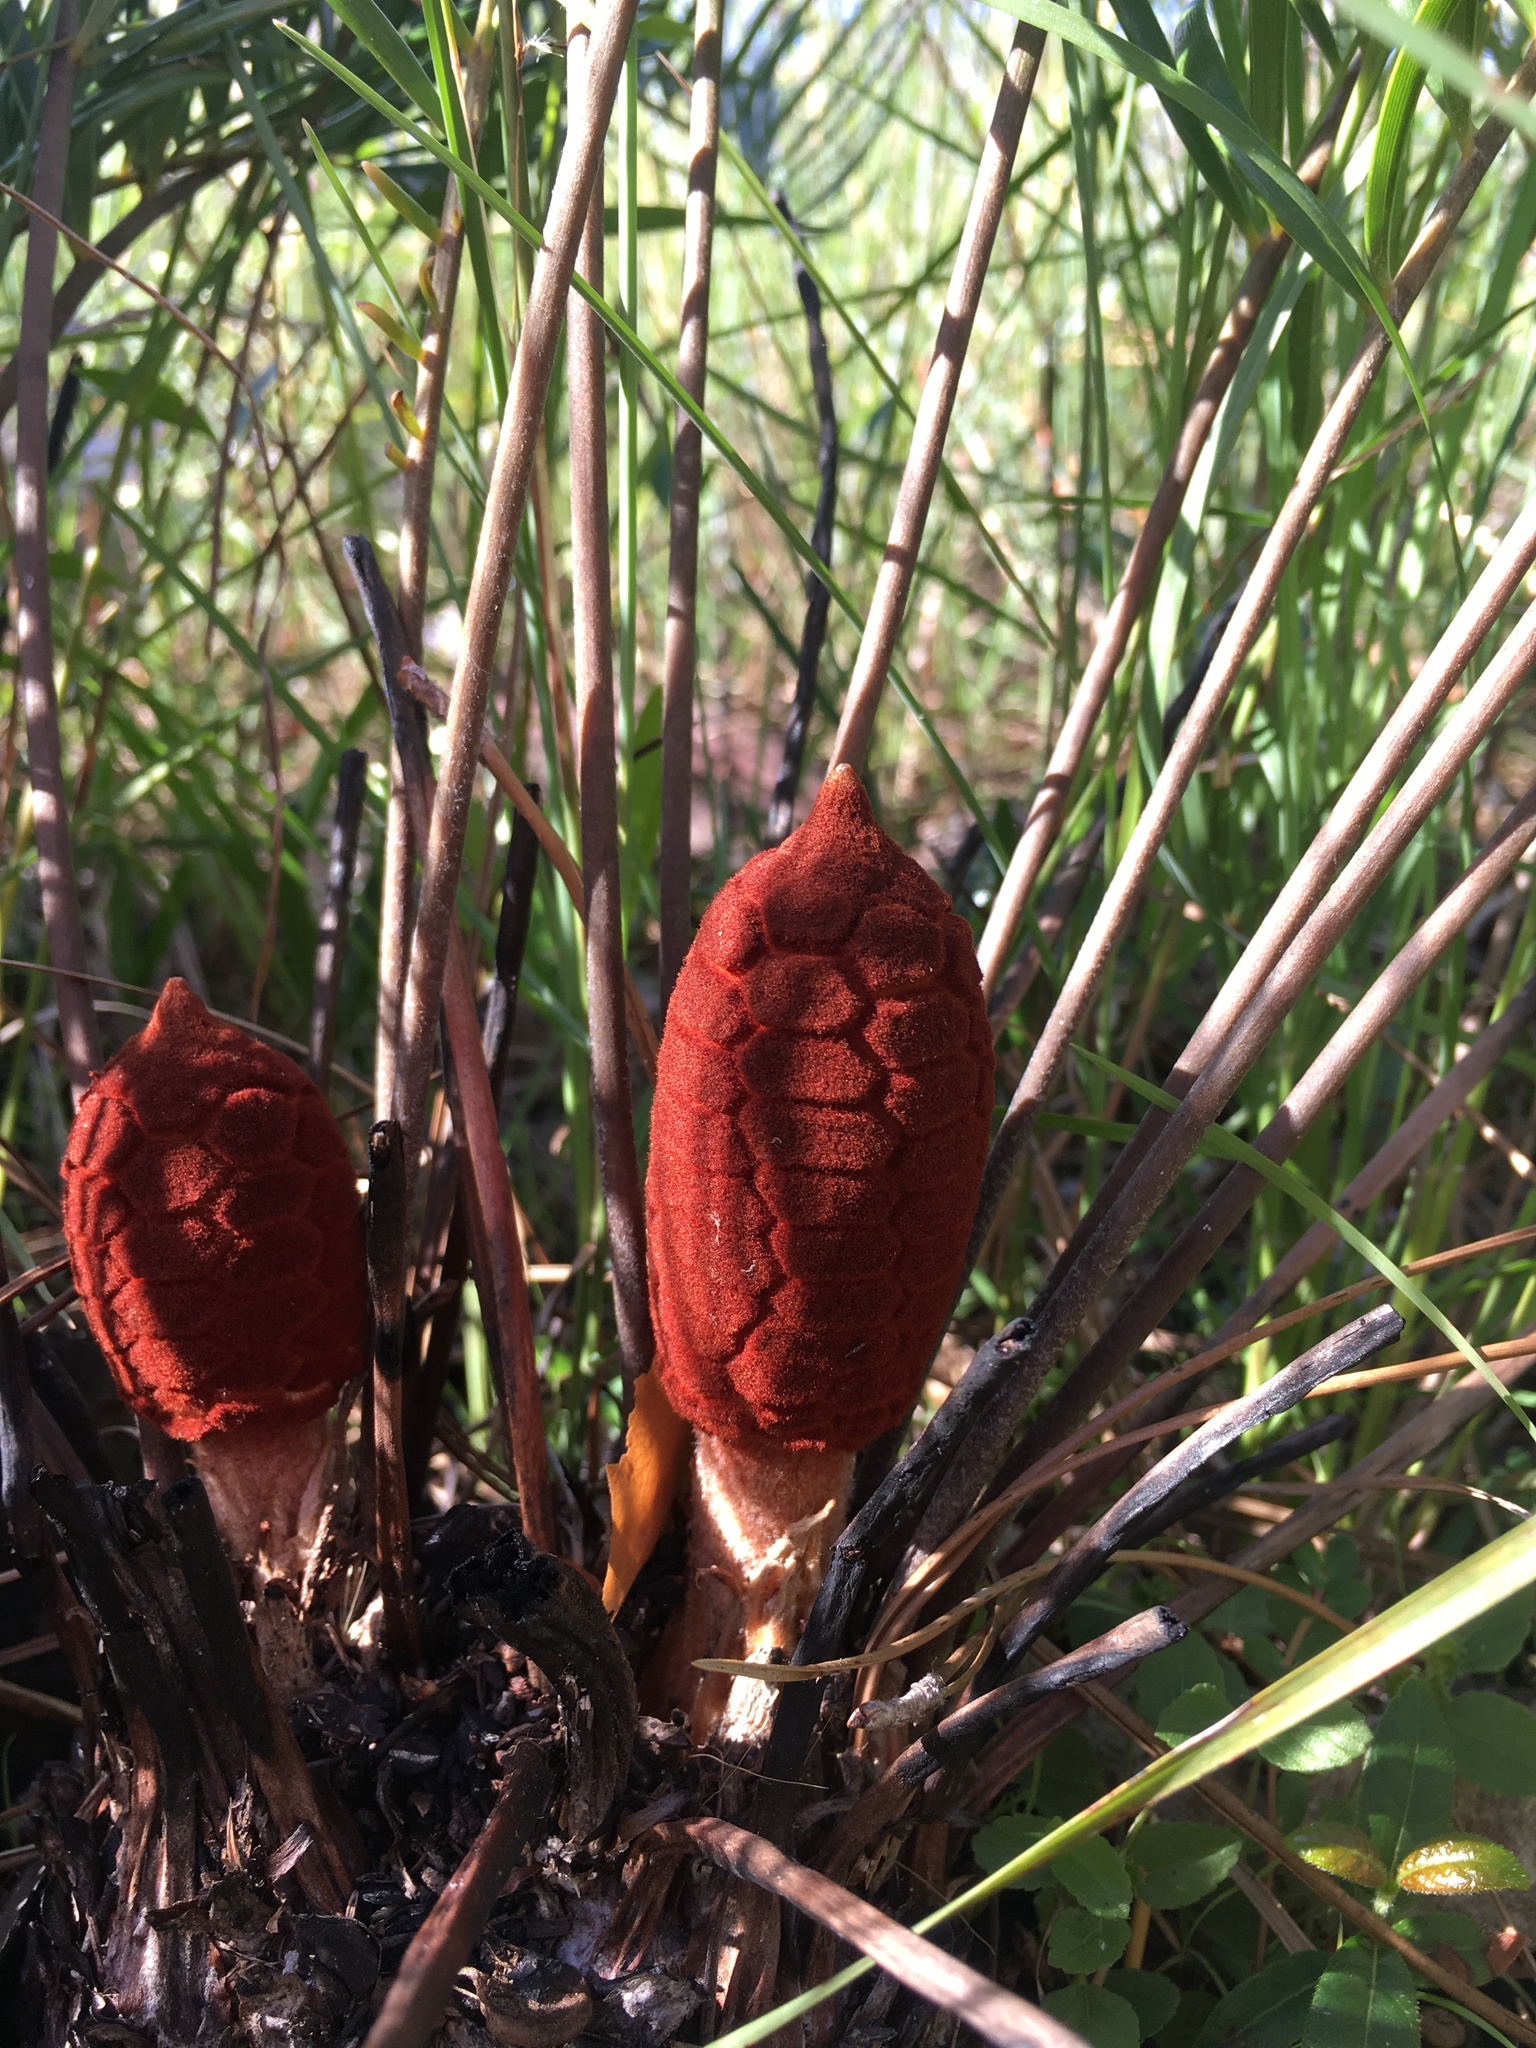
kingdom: Plantae
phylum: Tracheophyta
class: Cycadopsida
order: Cycadales
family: Zamiaceae
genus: Zamia
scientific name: Zamia integrifolia
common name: Florida arrowroot
